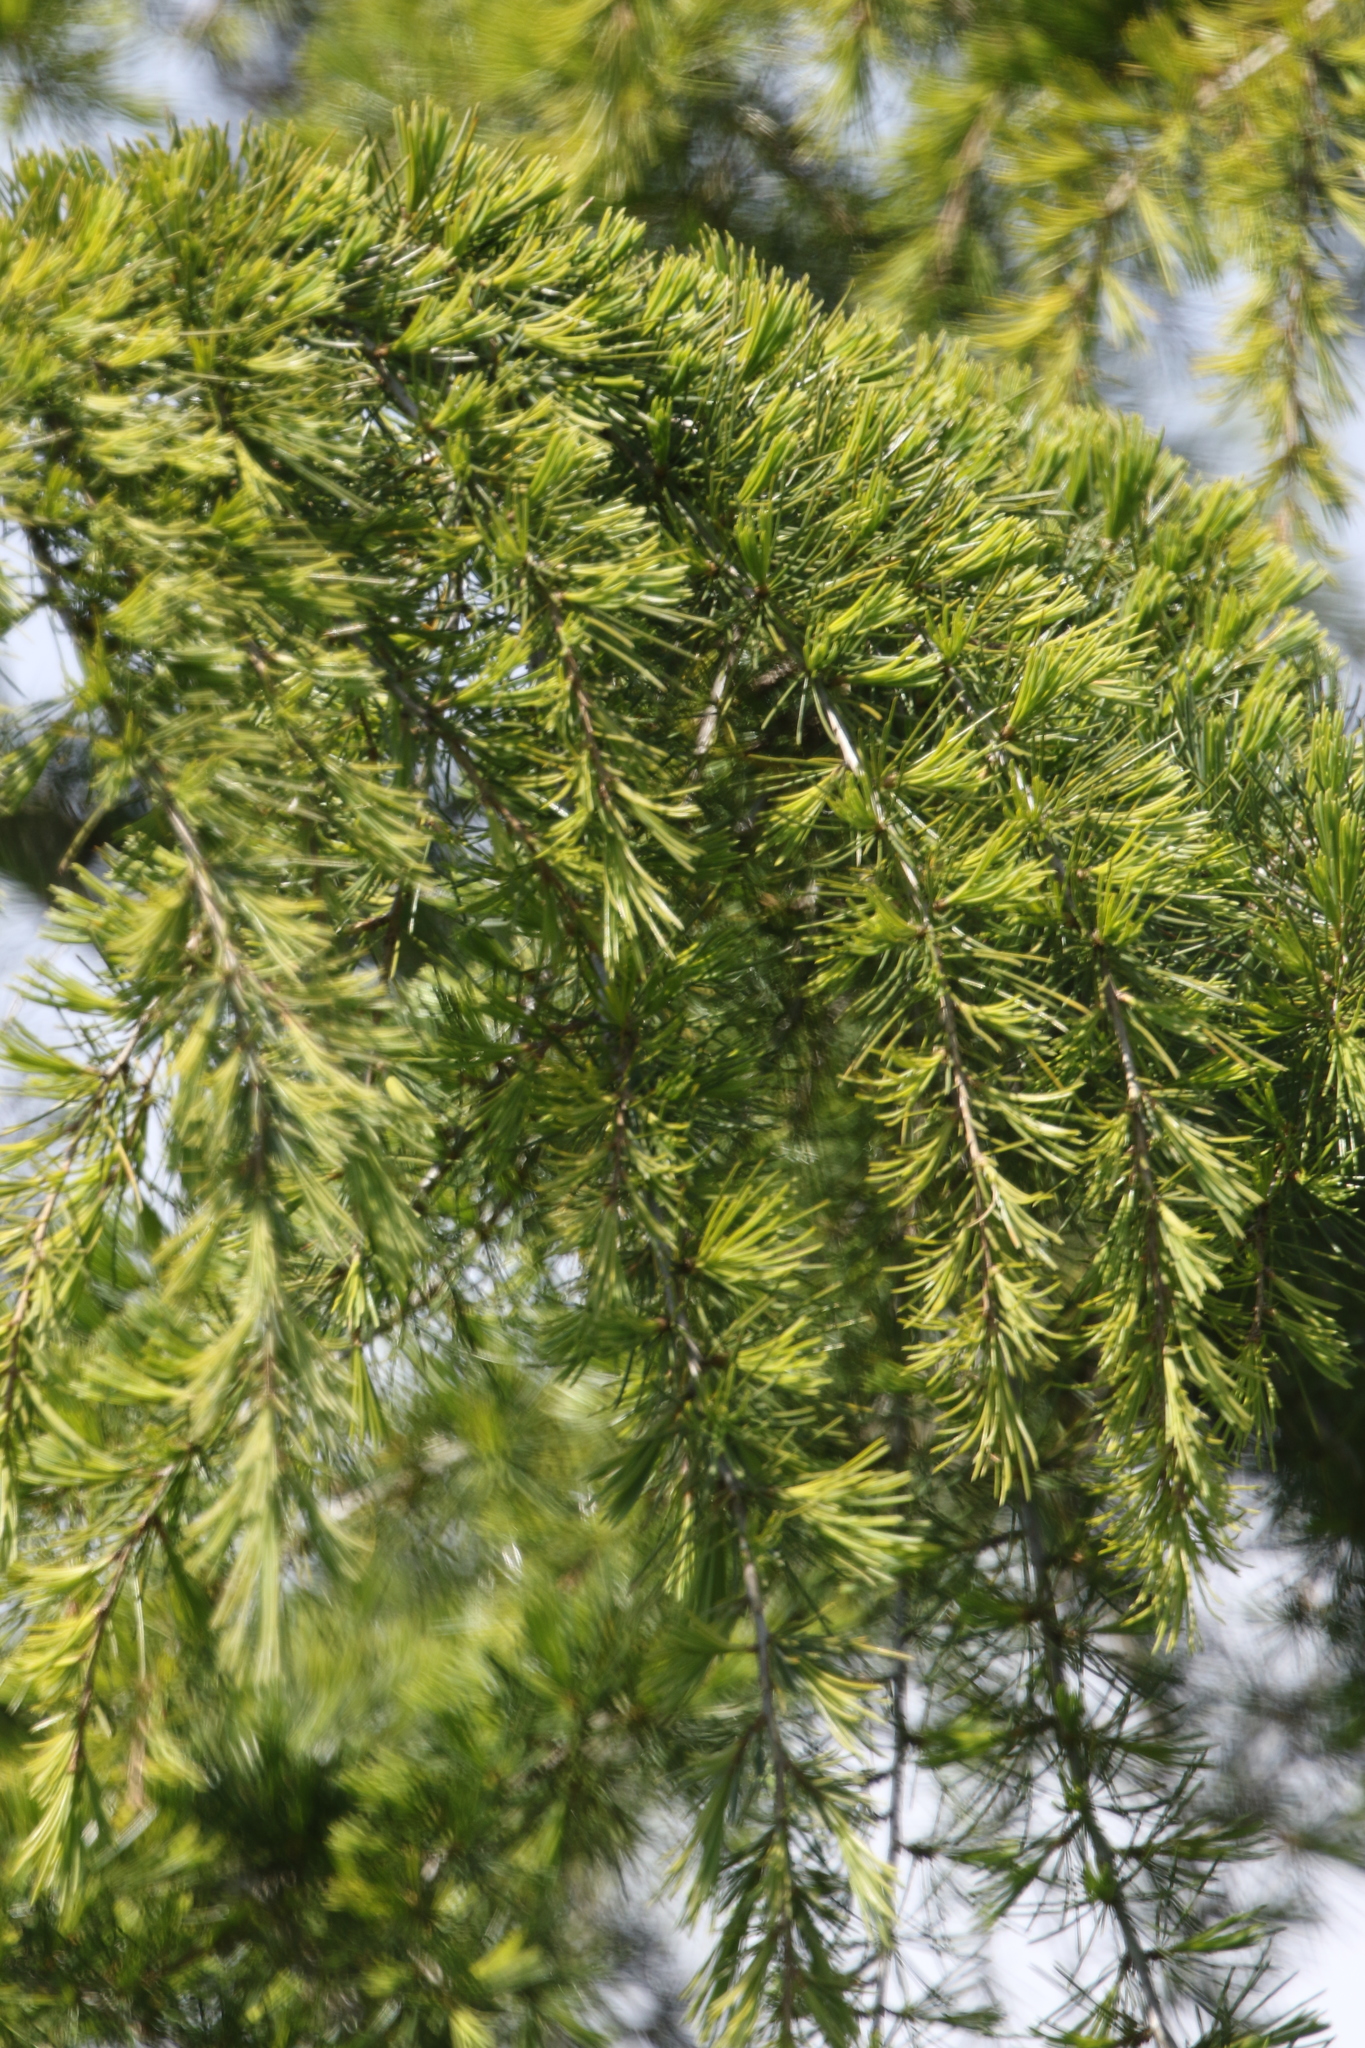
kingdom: Plantae
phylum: Tracheophyta
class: Pinopsida
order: Pinales
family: Pinaceae
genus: Cedrus
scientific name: Cedrus deodara
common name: Deodar
